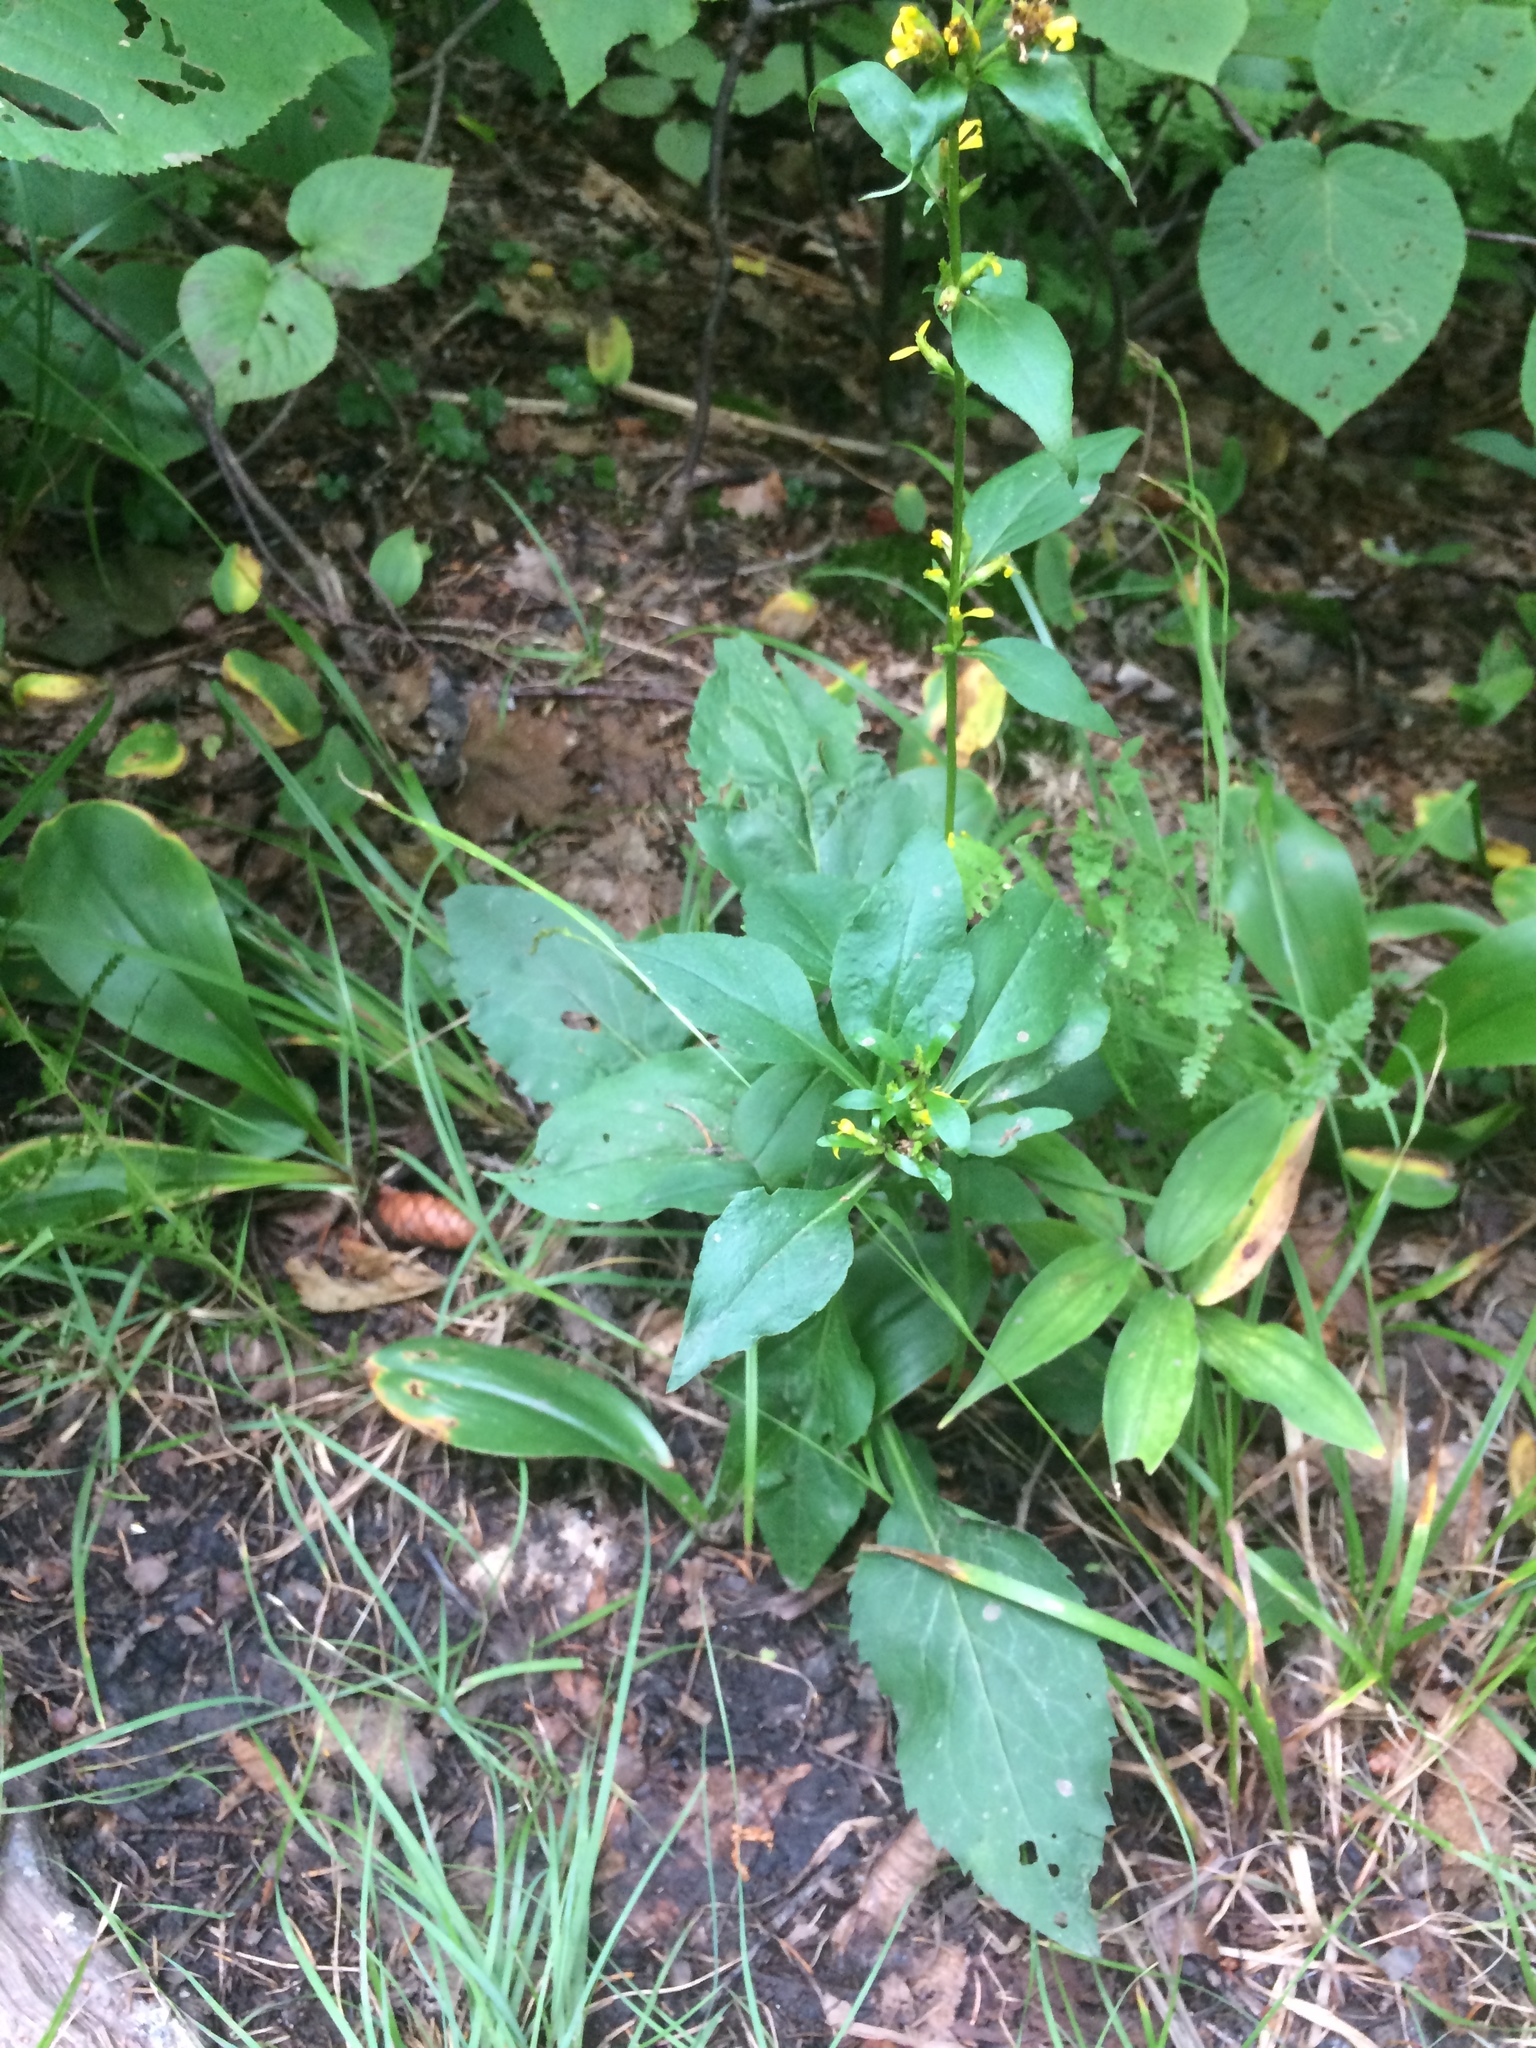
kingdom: Plantae
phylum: Tracheophyta
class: Magnoliopsida
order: Asterales
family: Asteraceae
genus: Solidago
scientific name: Solidago macrophylla
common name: Large-leaved goldenrod
